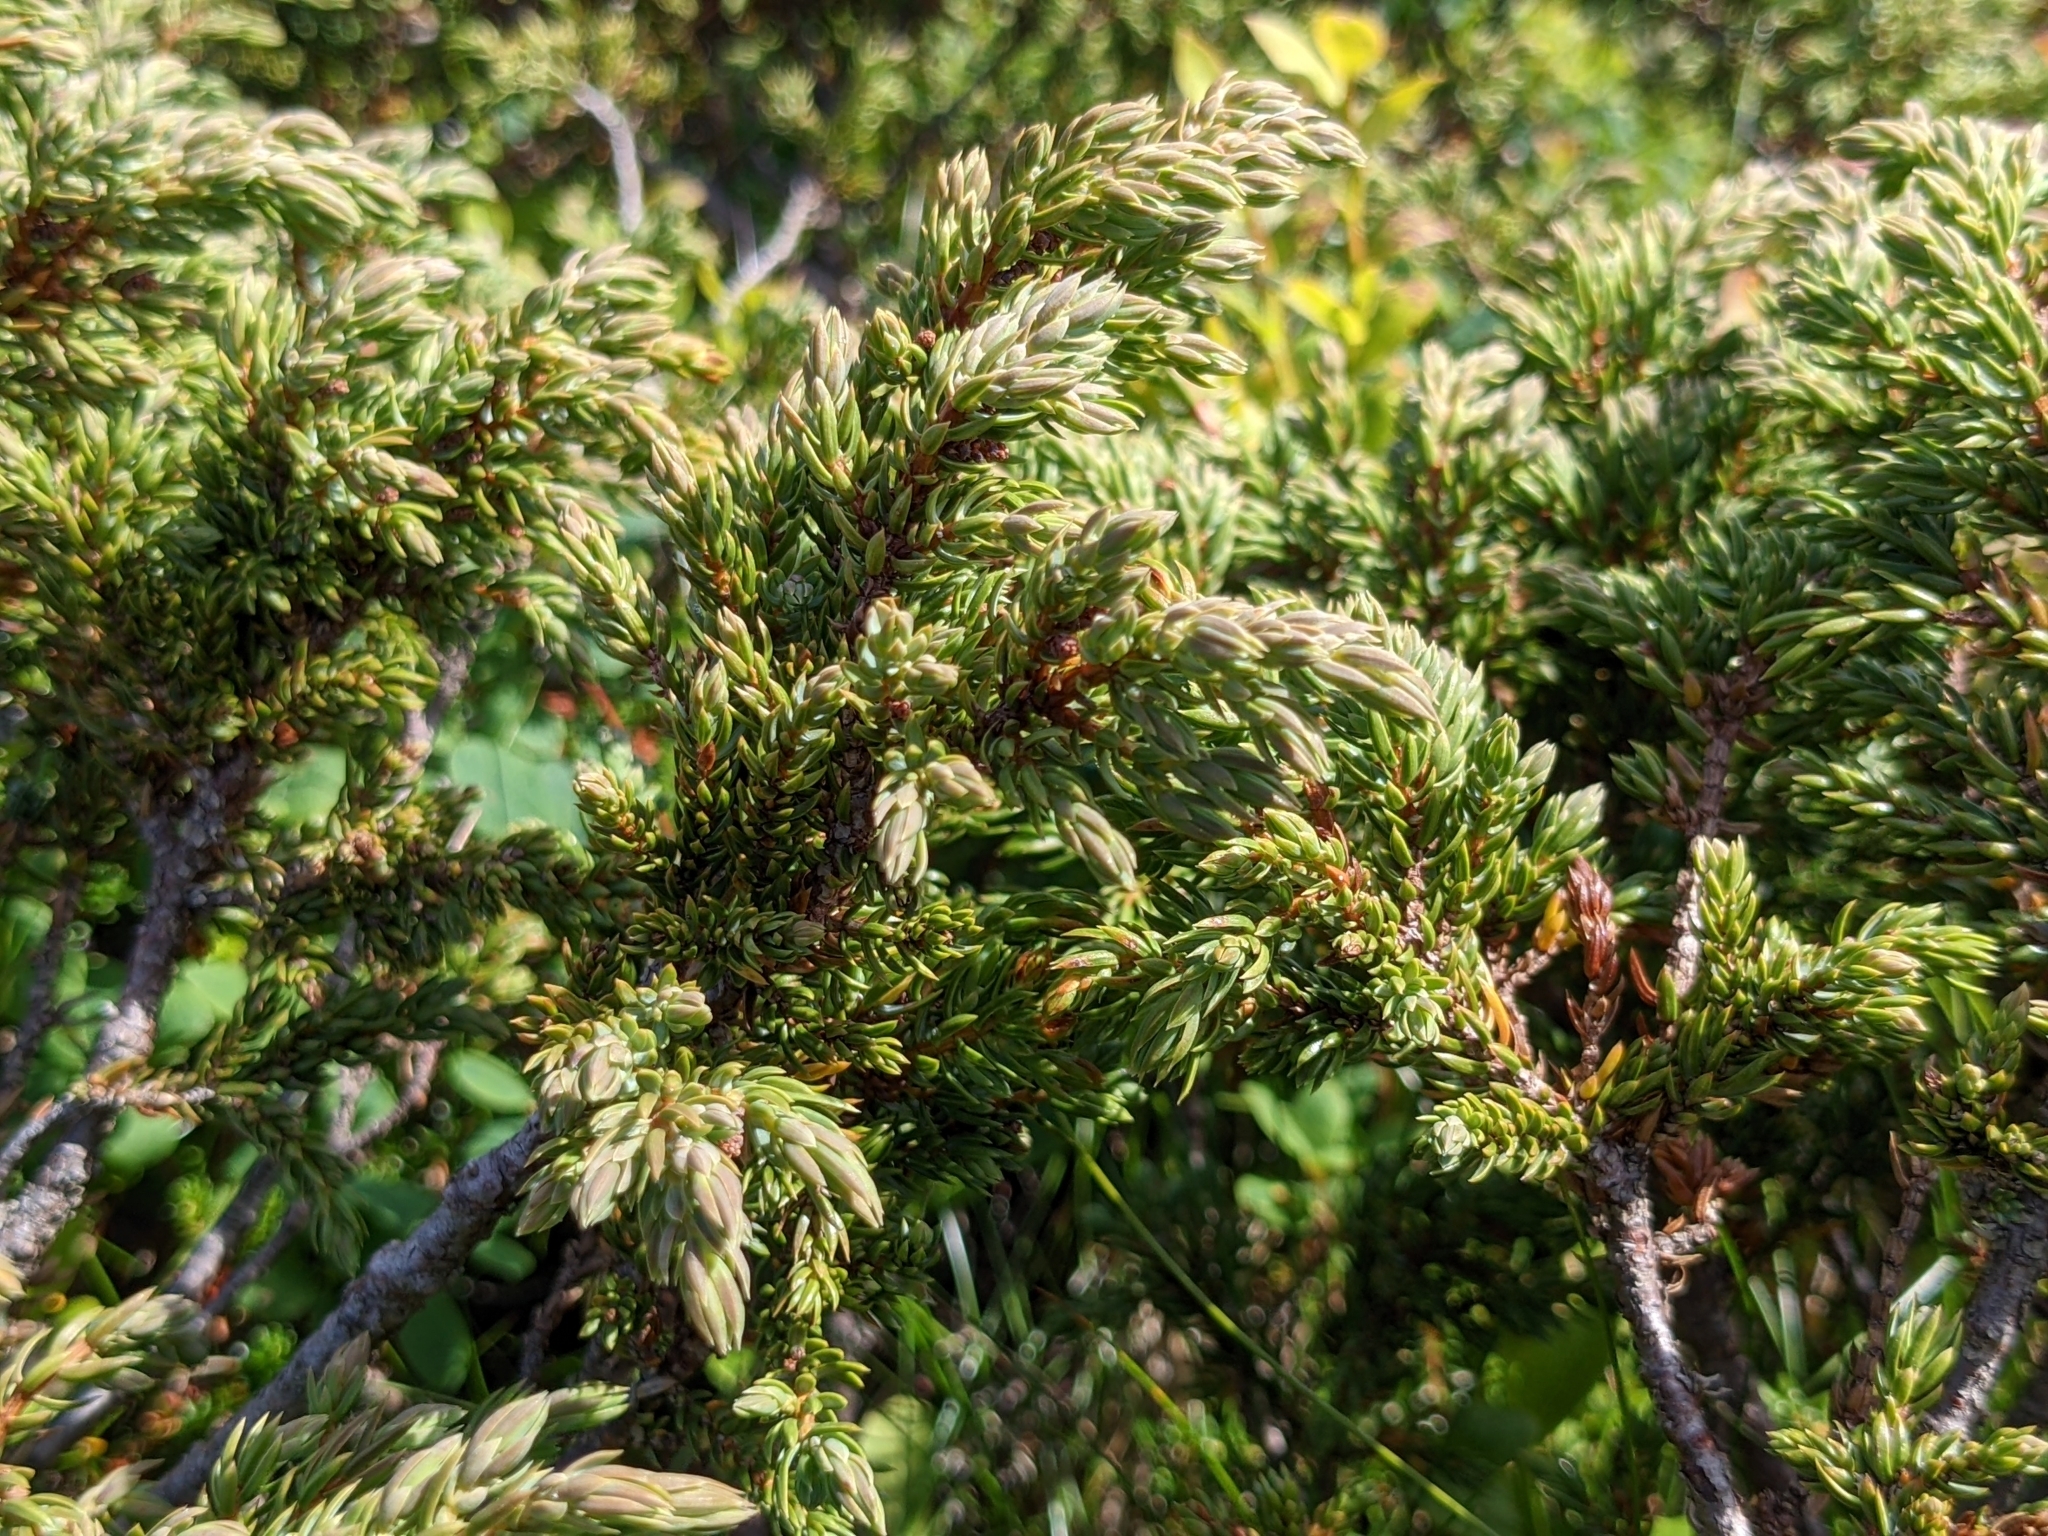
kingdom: Plantae
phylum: Tracheophyta
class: Pinopsida
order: Pinales
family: Cupressaceae
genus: Juniperus
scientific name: Juniperus communis
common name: Common juniper
